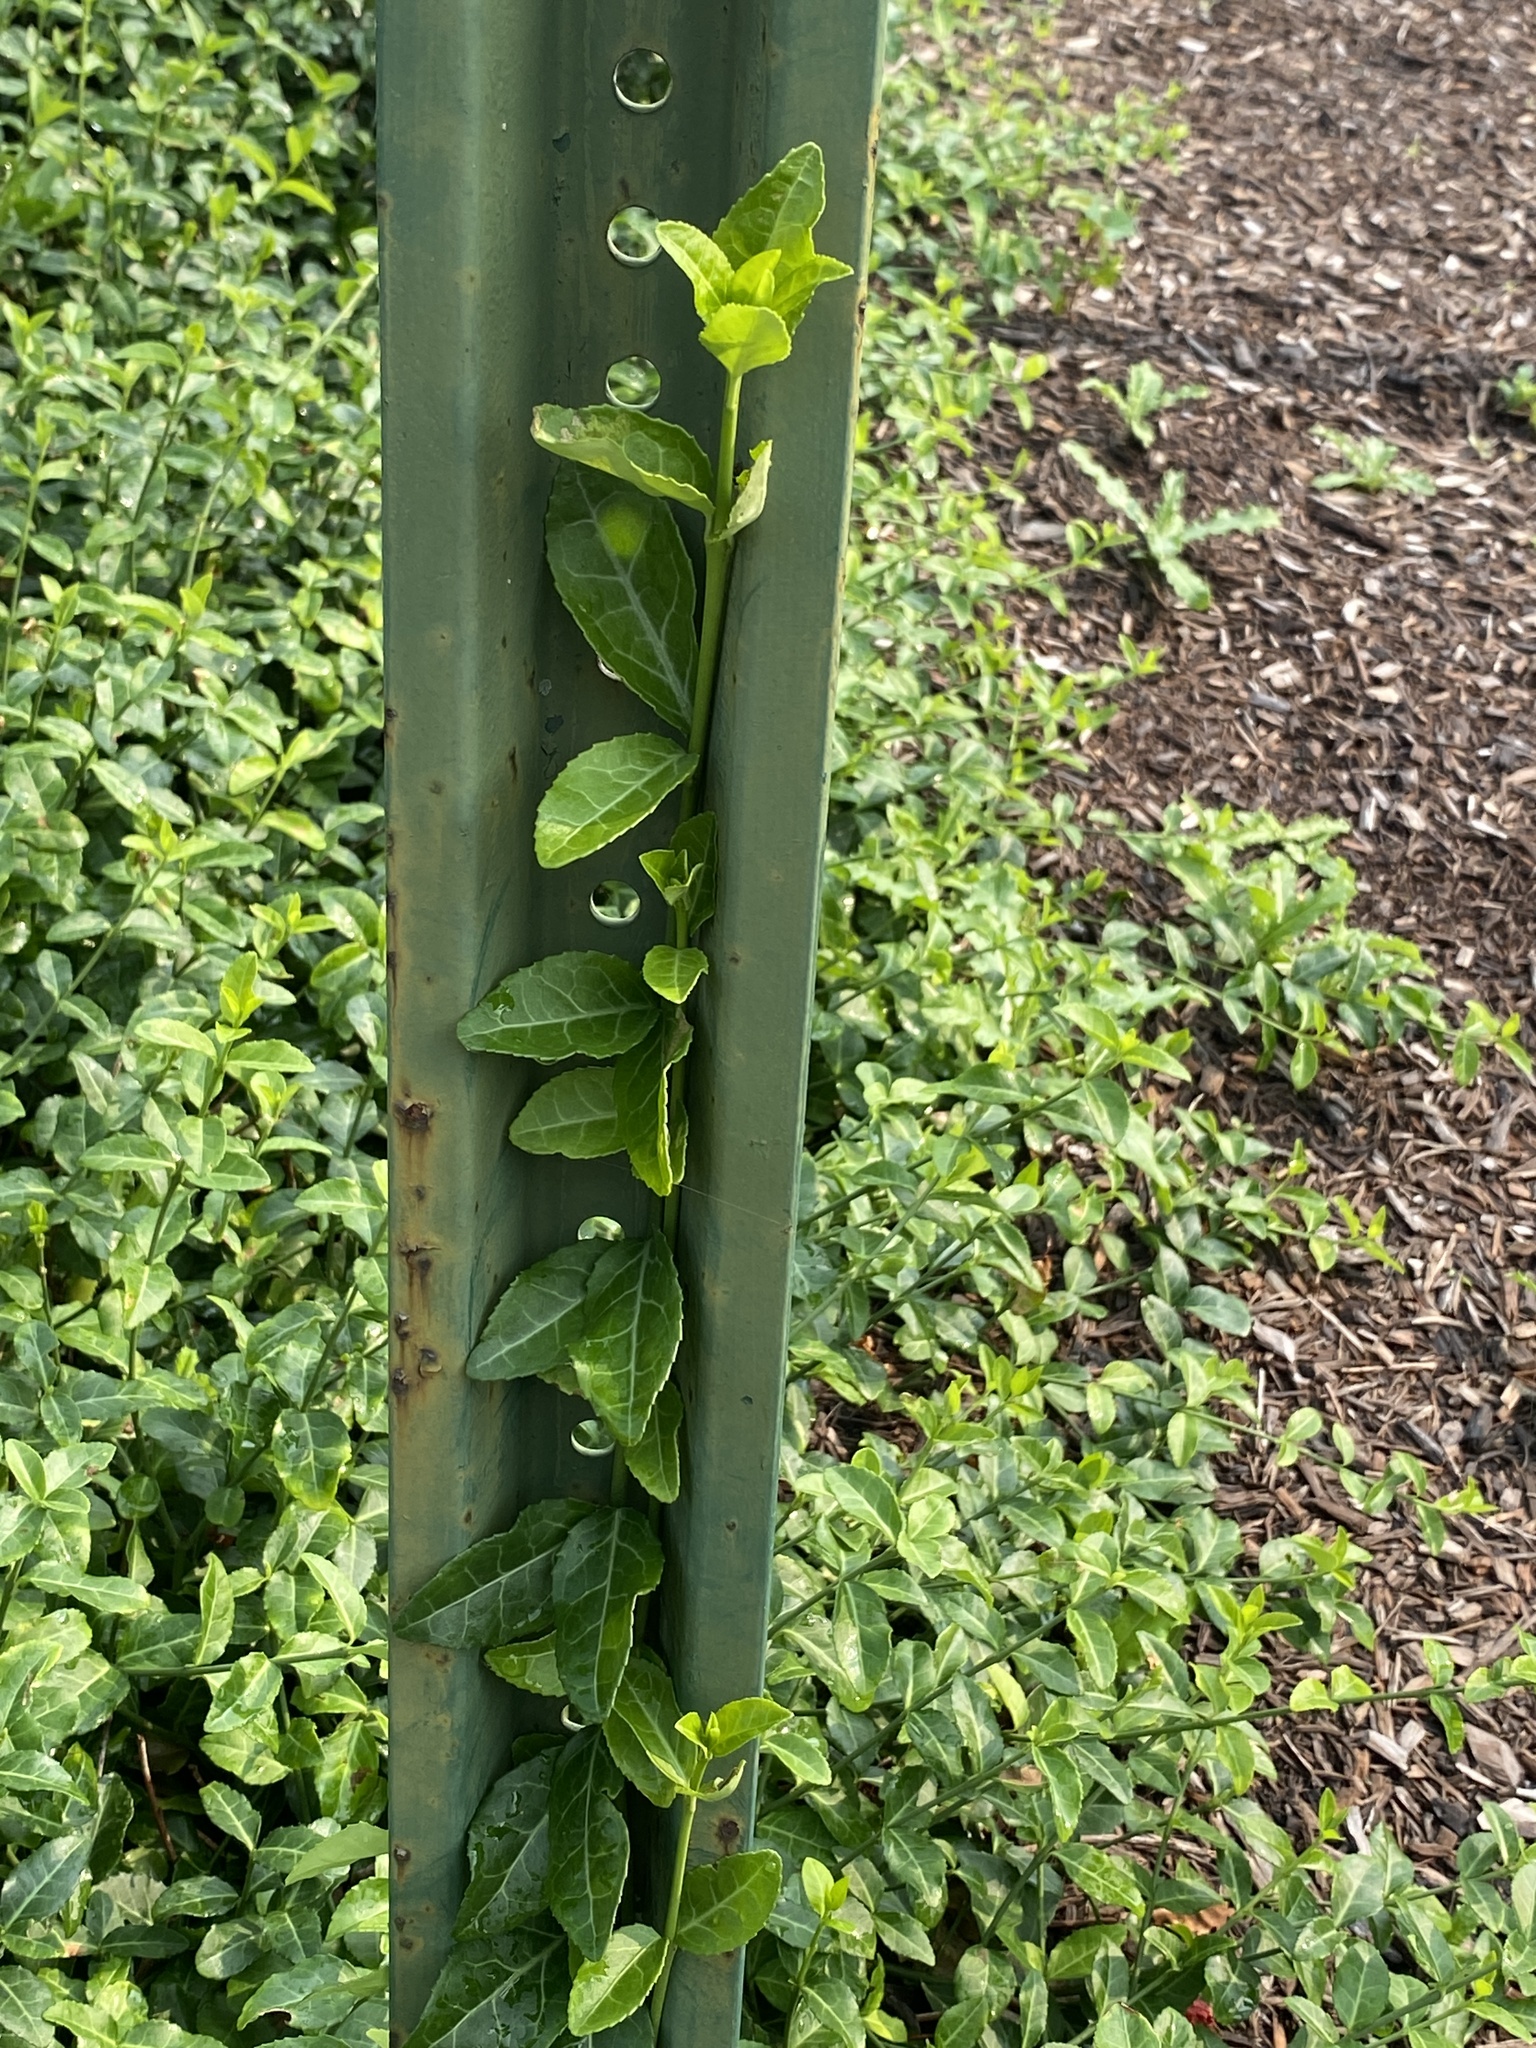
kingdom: Plantae
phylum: Tracheophyta
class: Magnoliopsida
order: Celastrales
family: Celastraceae
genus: Euonymus
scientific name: Euonymus fortunei
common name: Climbing euonymus
